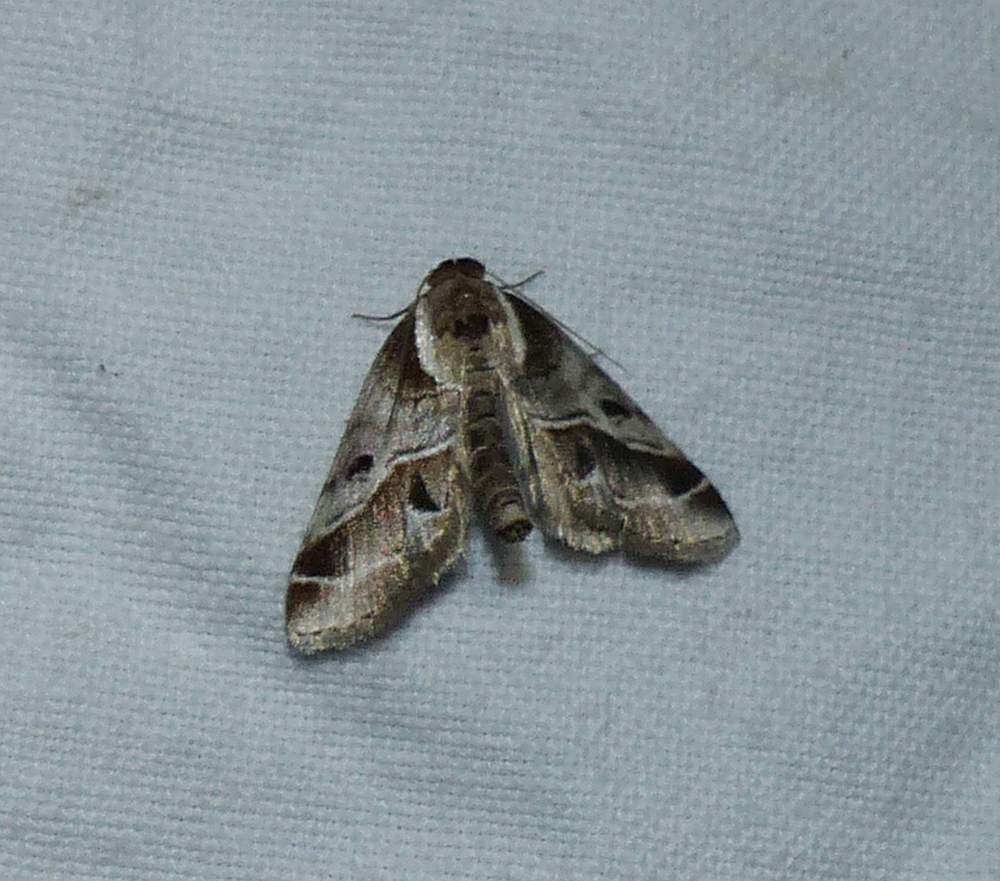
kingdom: Animalia
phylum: Arthropoda
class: Insecta
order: Lepidoptera
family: Nolidae
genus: Baileya
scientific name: Baileya doubledayi
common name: Doubleday's baileya moth
